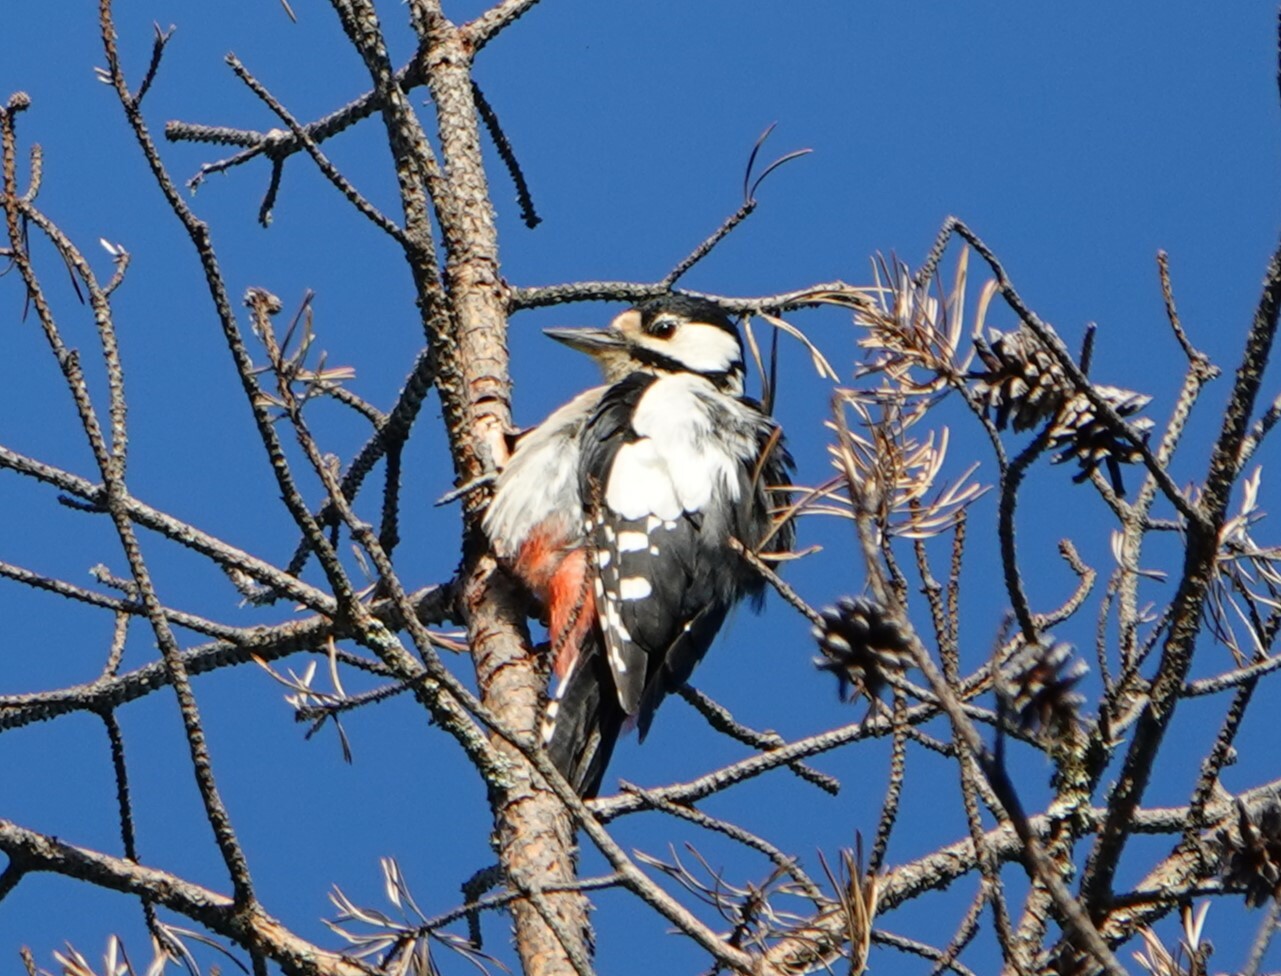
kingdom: Animalia
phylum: Chordata
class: Aves
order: Piciformes
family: Picidae
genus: Dendrocopos
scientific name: Dendrocopos major
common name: Great spotted woodpecker
